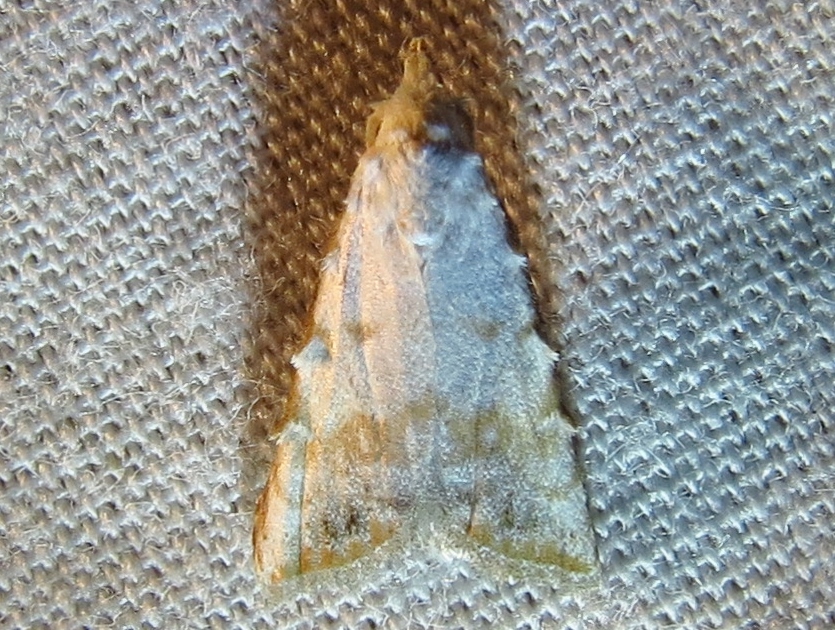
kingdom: Animalia
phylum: Arthropoda
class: Insecta
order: Lepidoptera
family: Nolidae
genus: Nola
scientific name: Nola cereella
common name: Sorghum webworm moth
